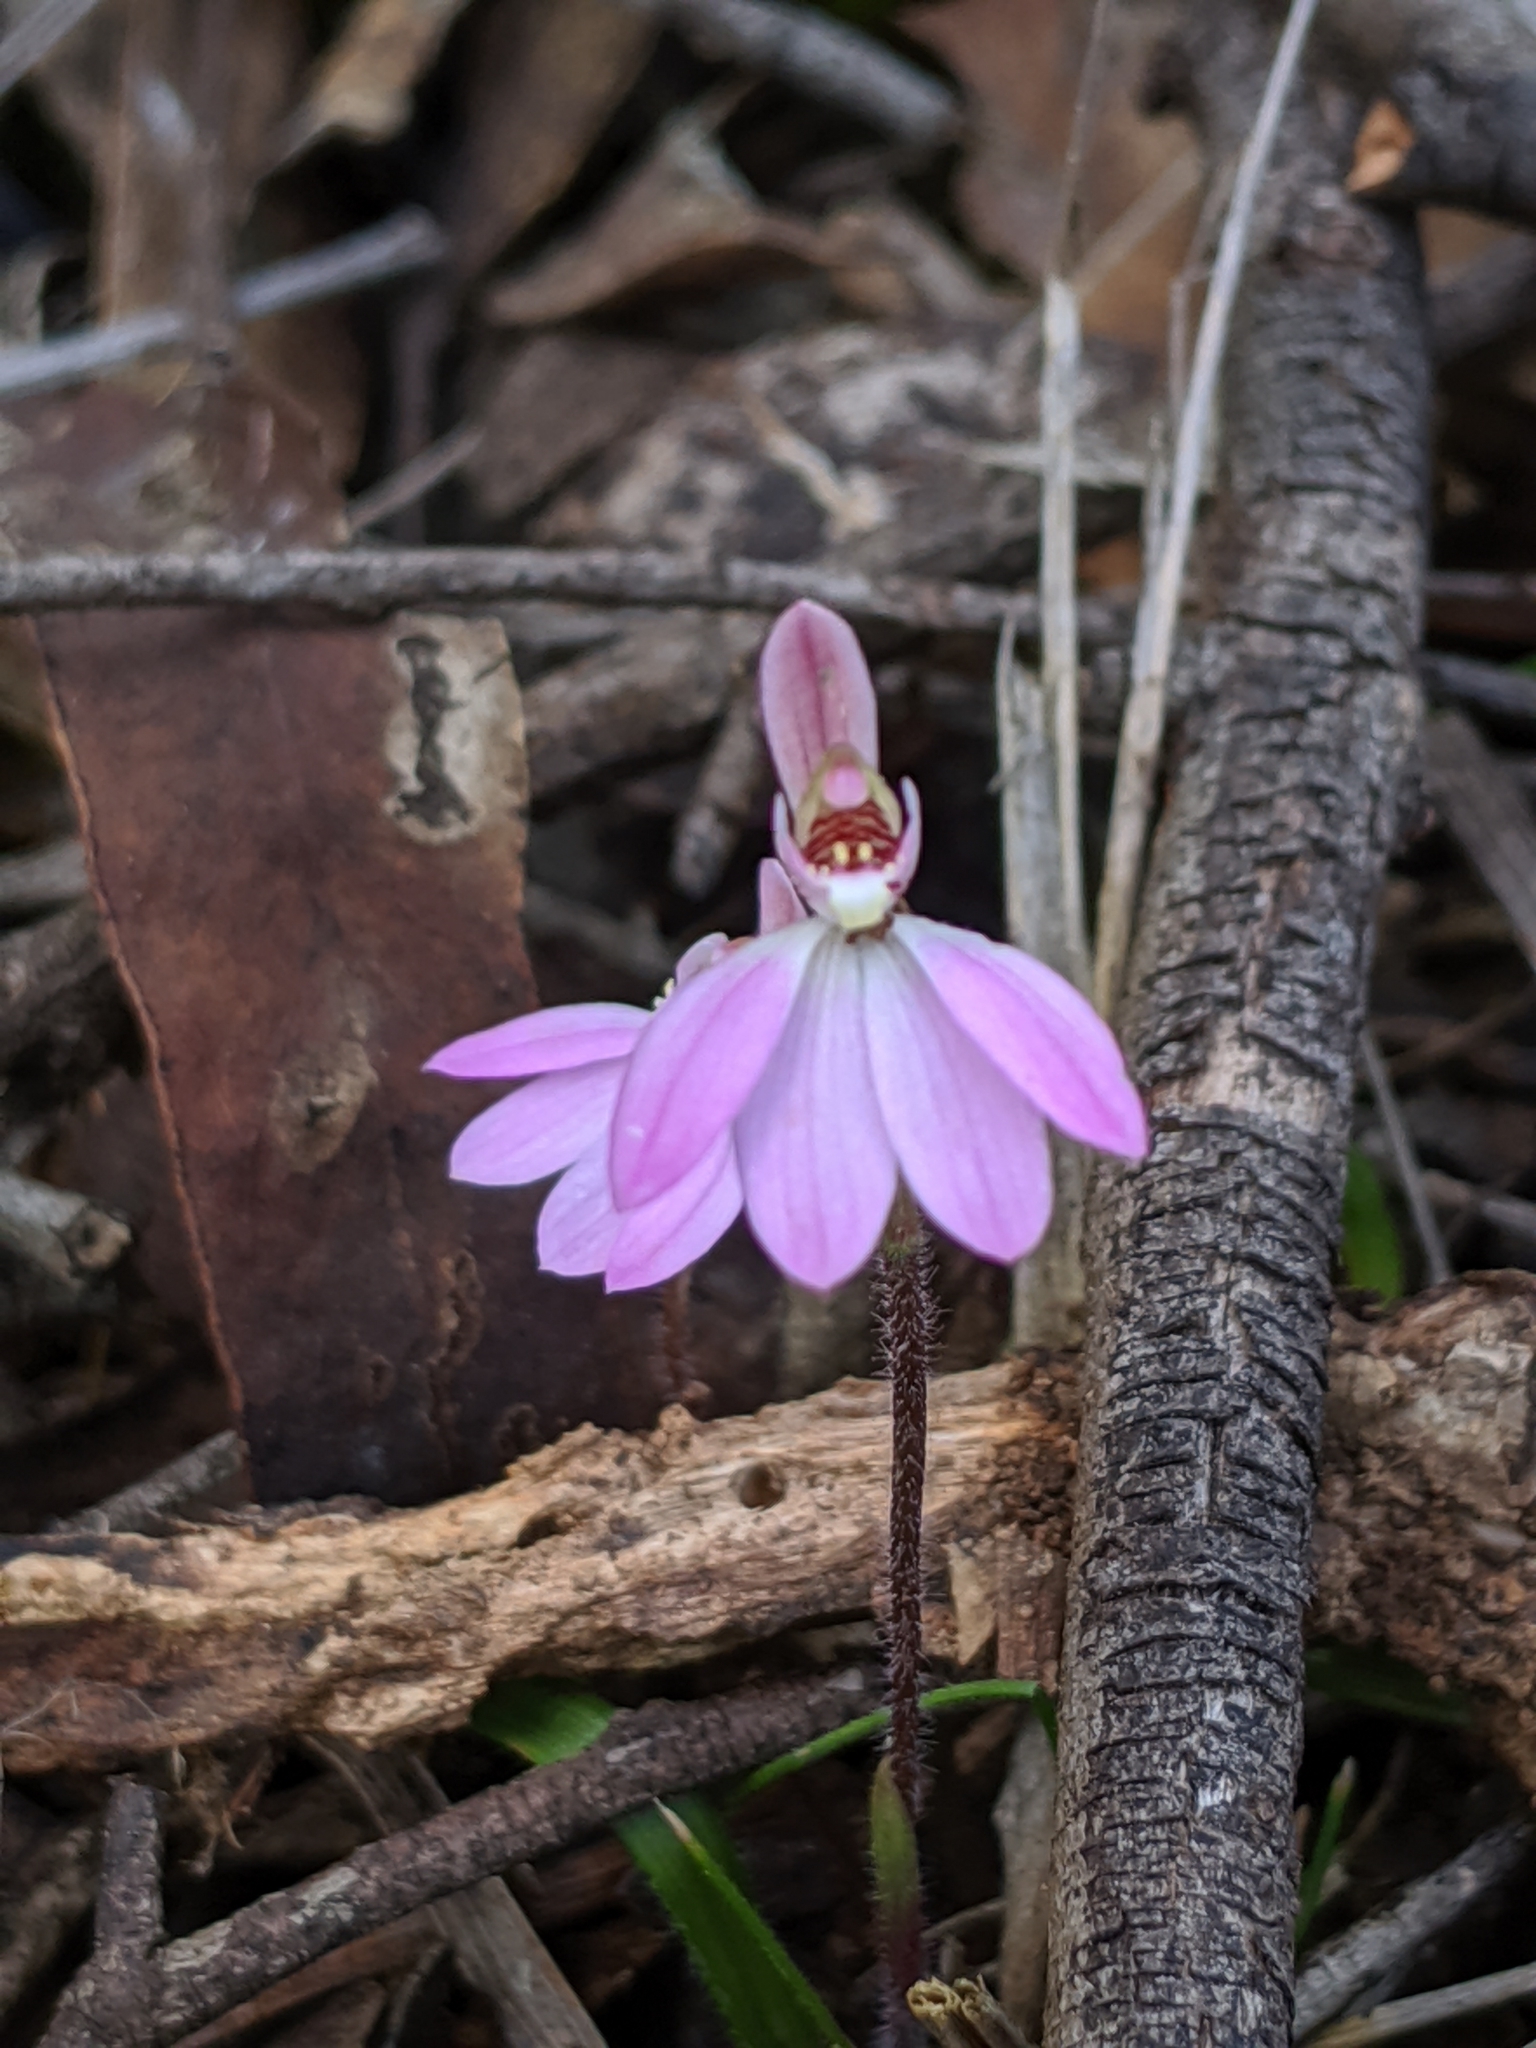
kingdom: Plantae
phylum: Tracheophyta
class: Liliopsida
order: Asparagales
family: Orchidaceae
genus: Caladenia
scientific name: Caladenia carnea
